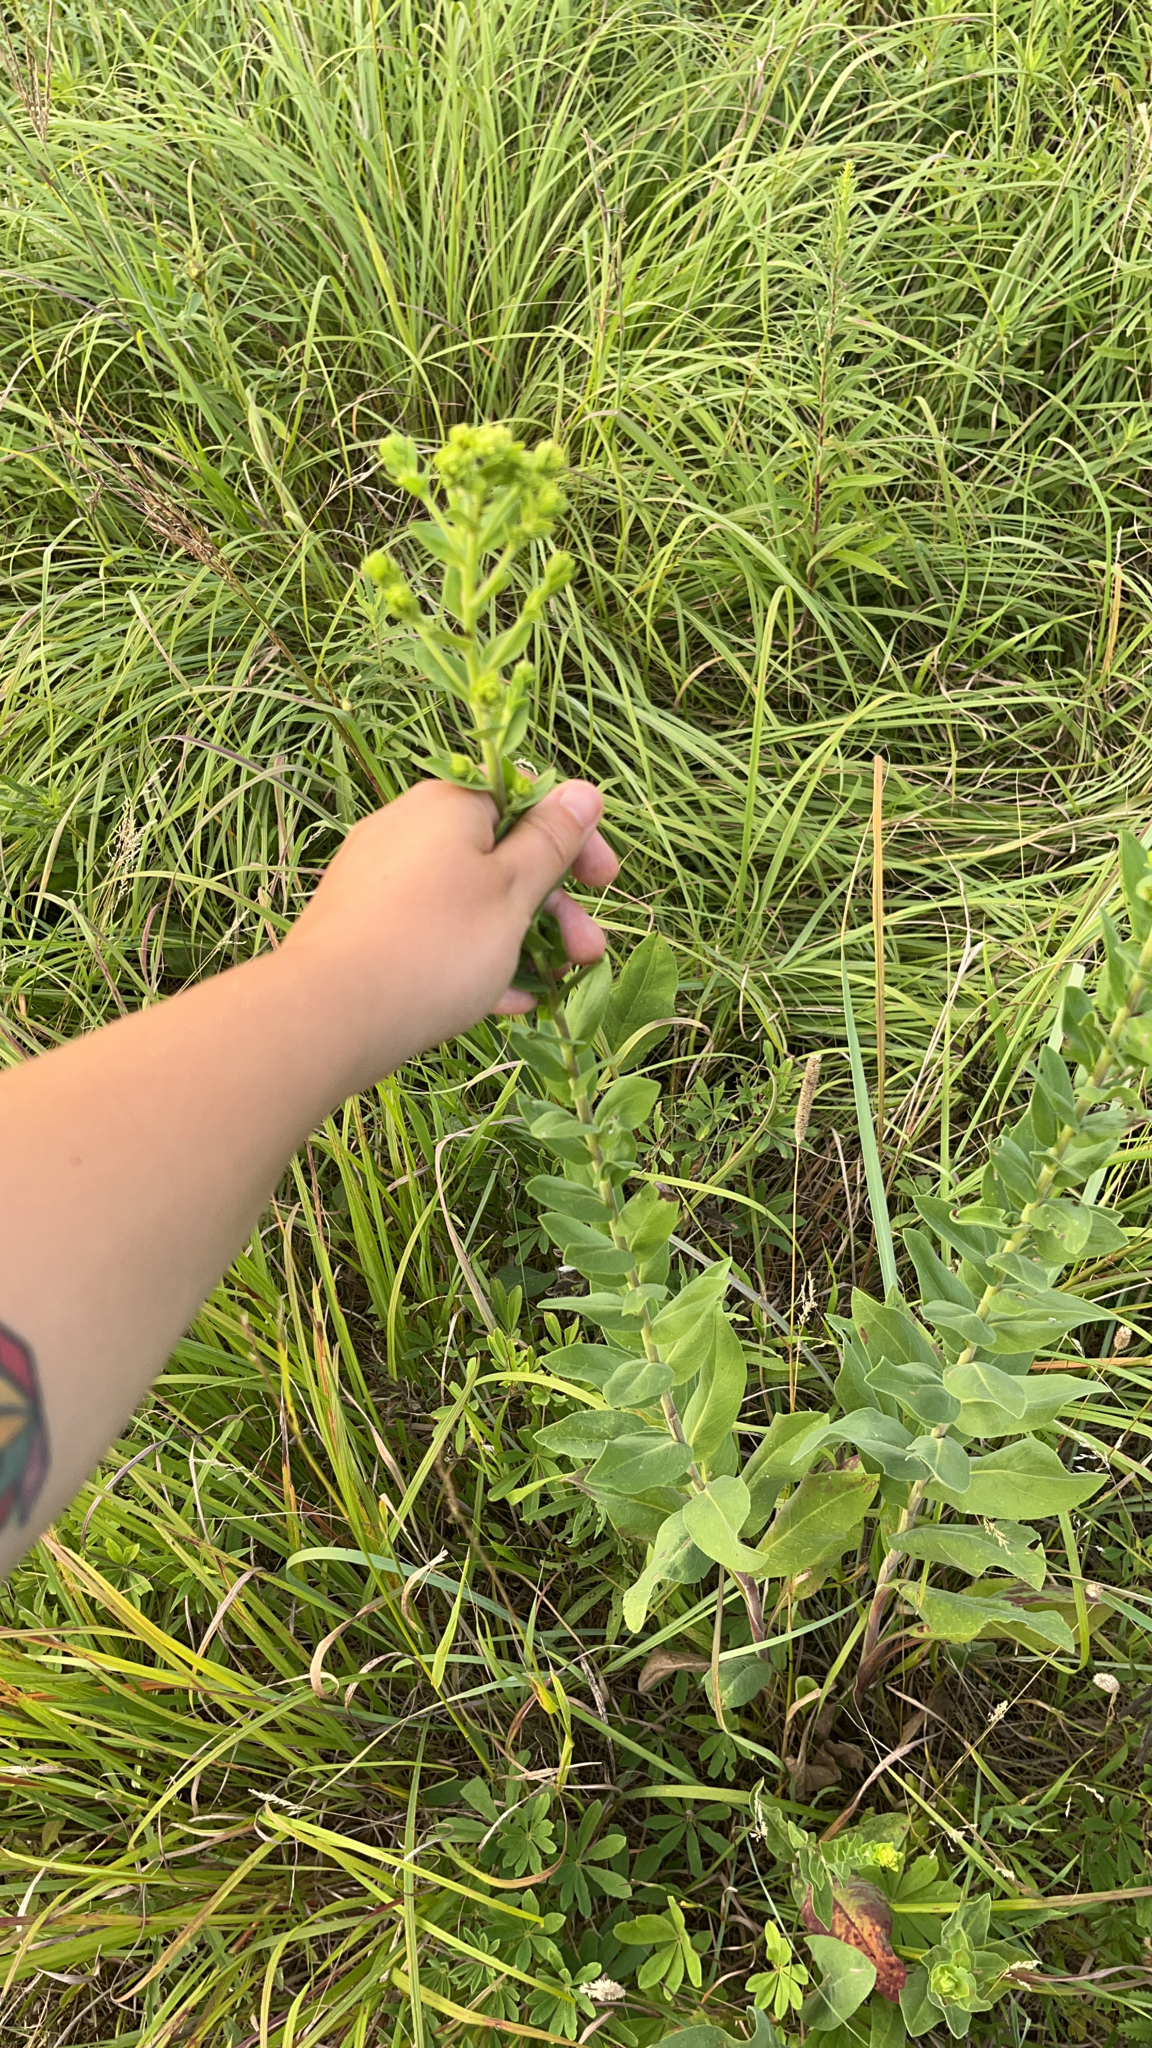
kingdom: Plantae
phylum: Tracheophyta
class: Magnoliopsida
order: Asterales
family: Asteraceae
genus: Solidago
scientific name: Solidago rigida
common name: Rigid goldenrod
